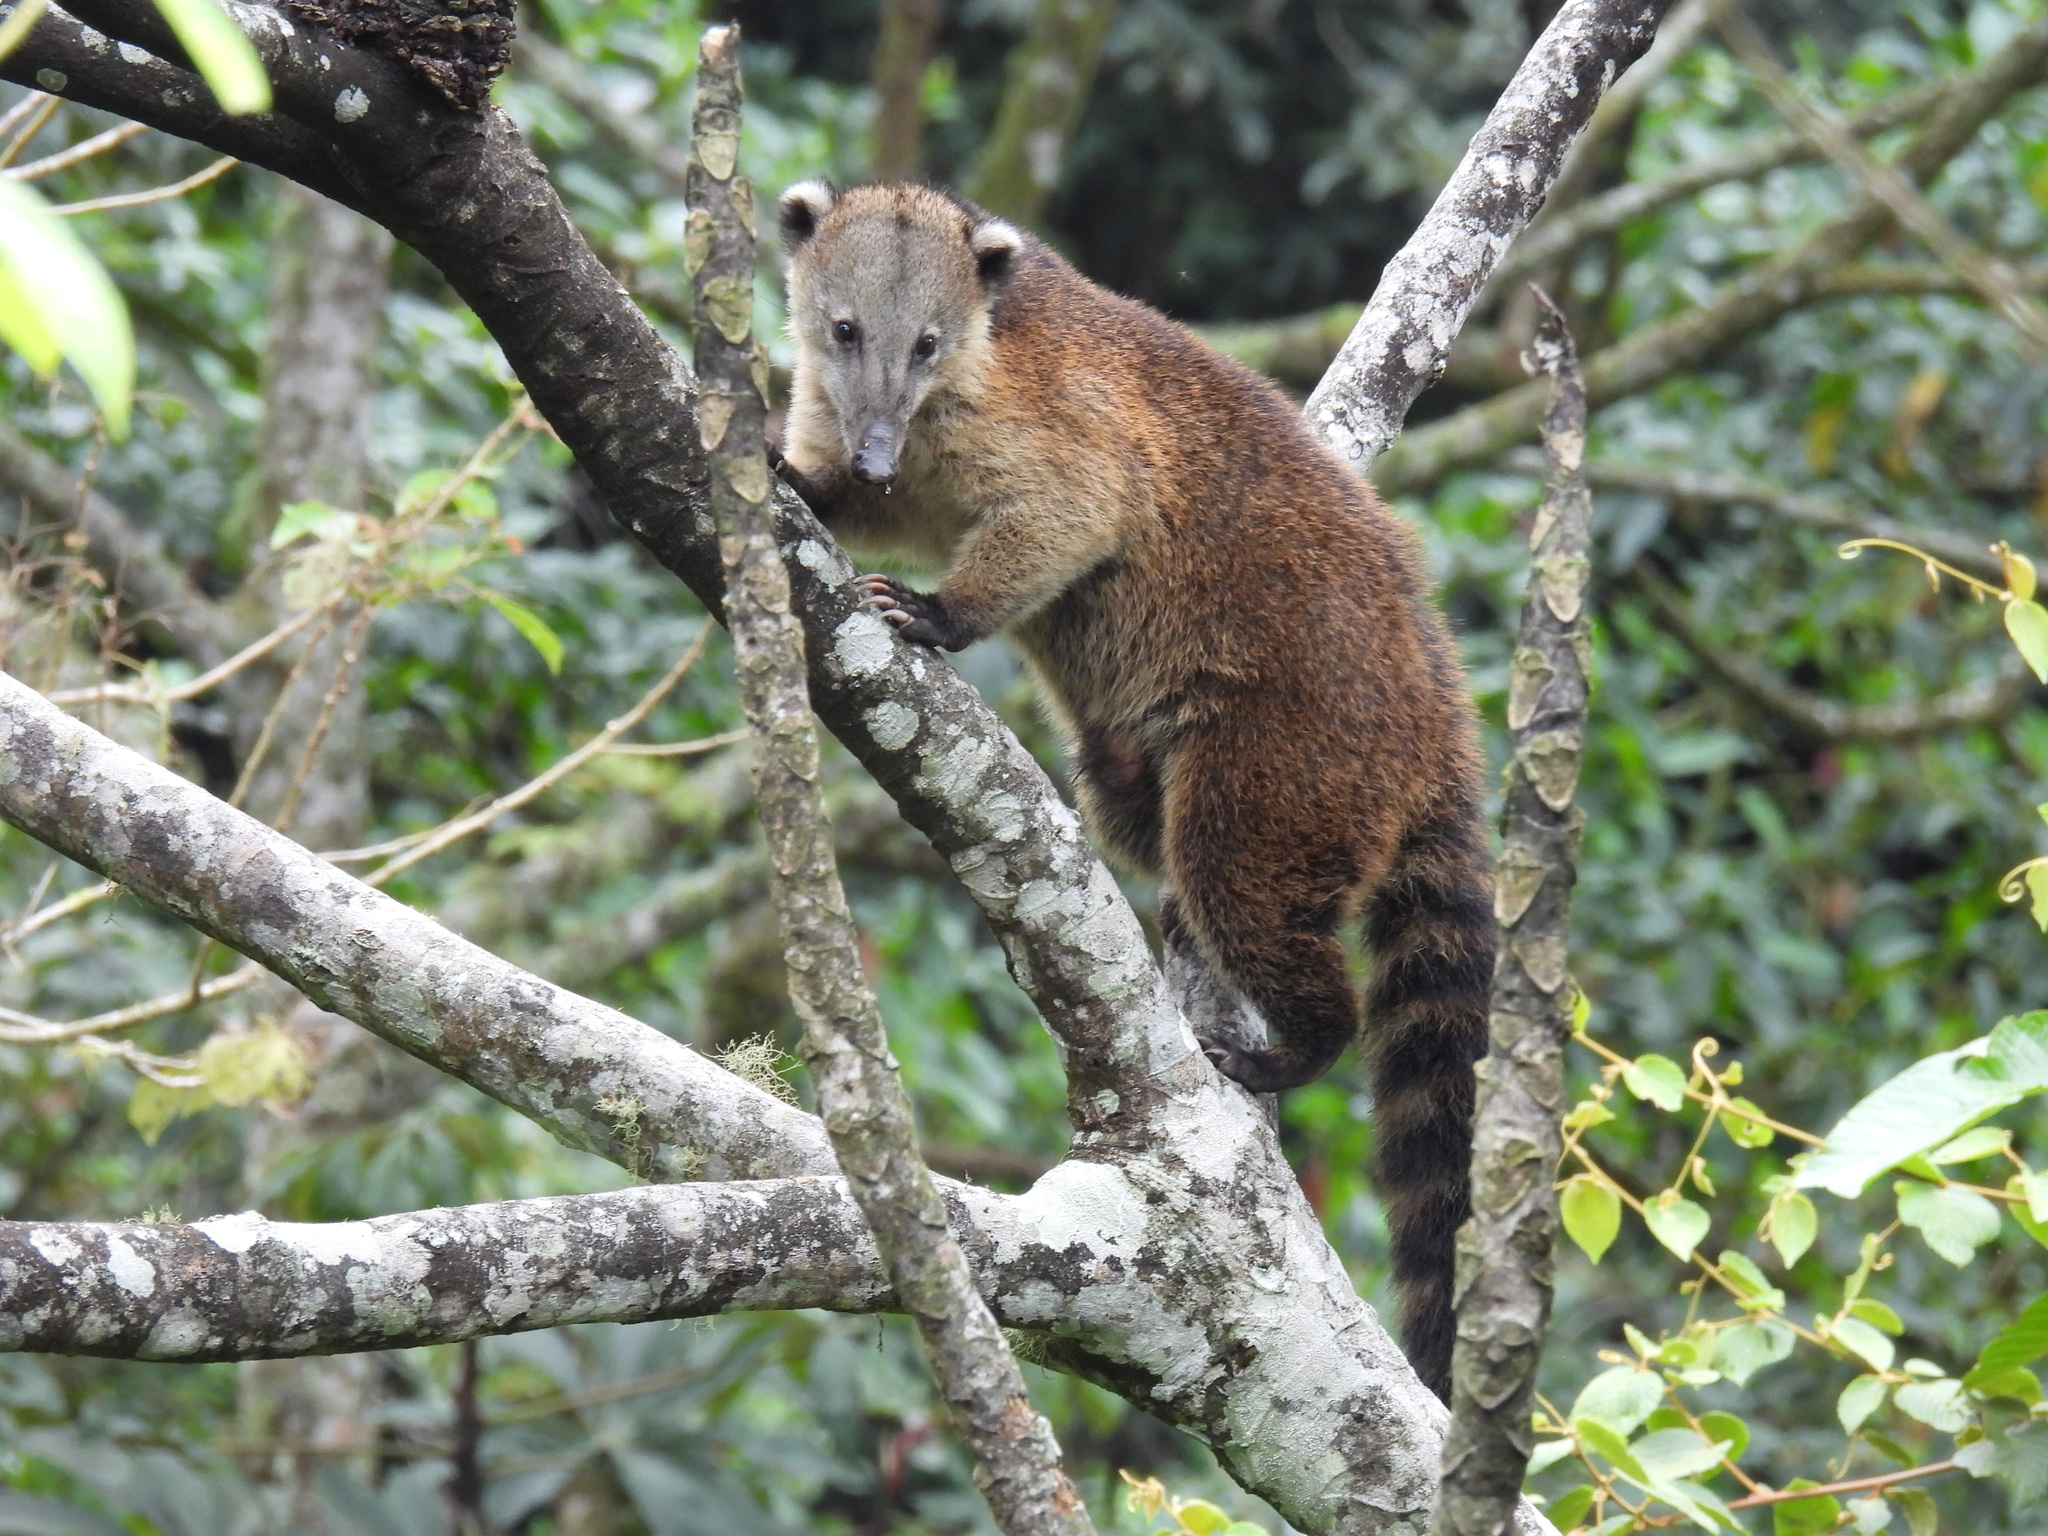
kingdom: Animalia
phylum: Chordata
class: Mammalia
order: Carnivora
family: Procyonidae
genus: Nasua
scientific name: Nasua olivacea
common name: Mountain coati
